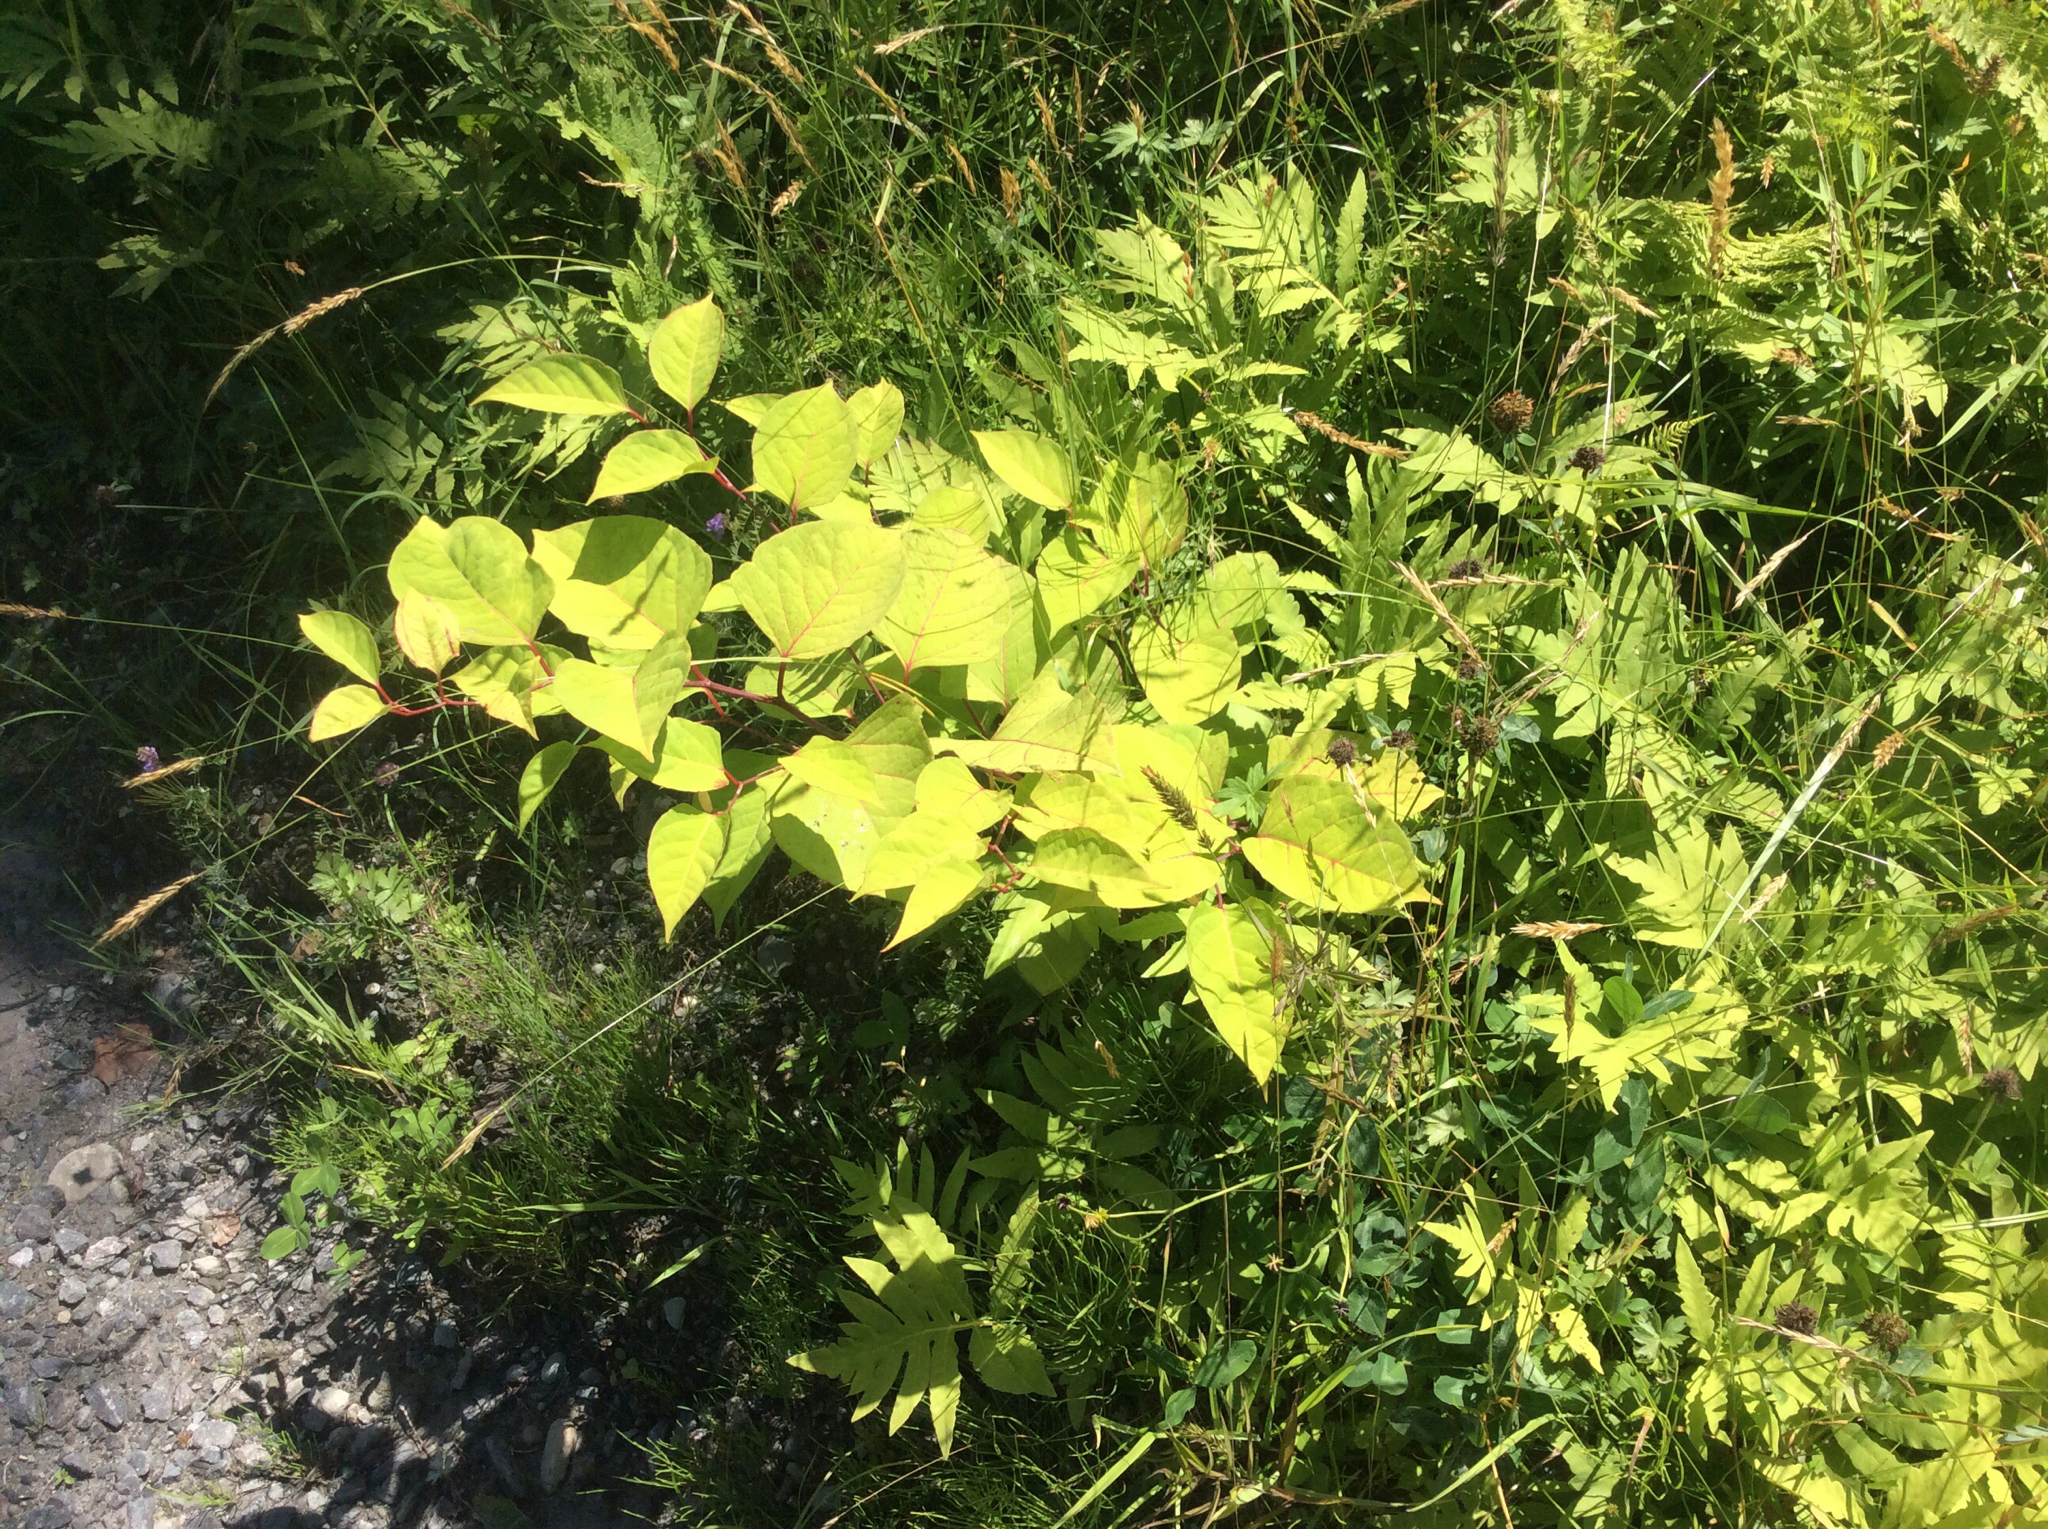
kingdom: Plantae
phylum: Tracheophyta
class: Magnoliopsida
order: Caryophyllales
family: Polygonaceae
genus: Reynoutria
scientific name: Reynoutria japonica
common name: Japanese knotweed
